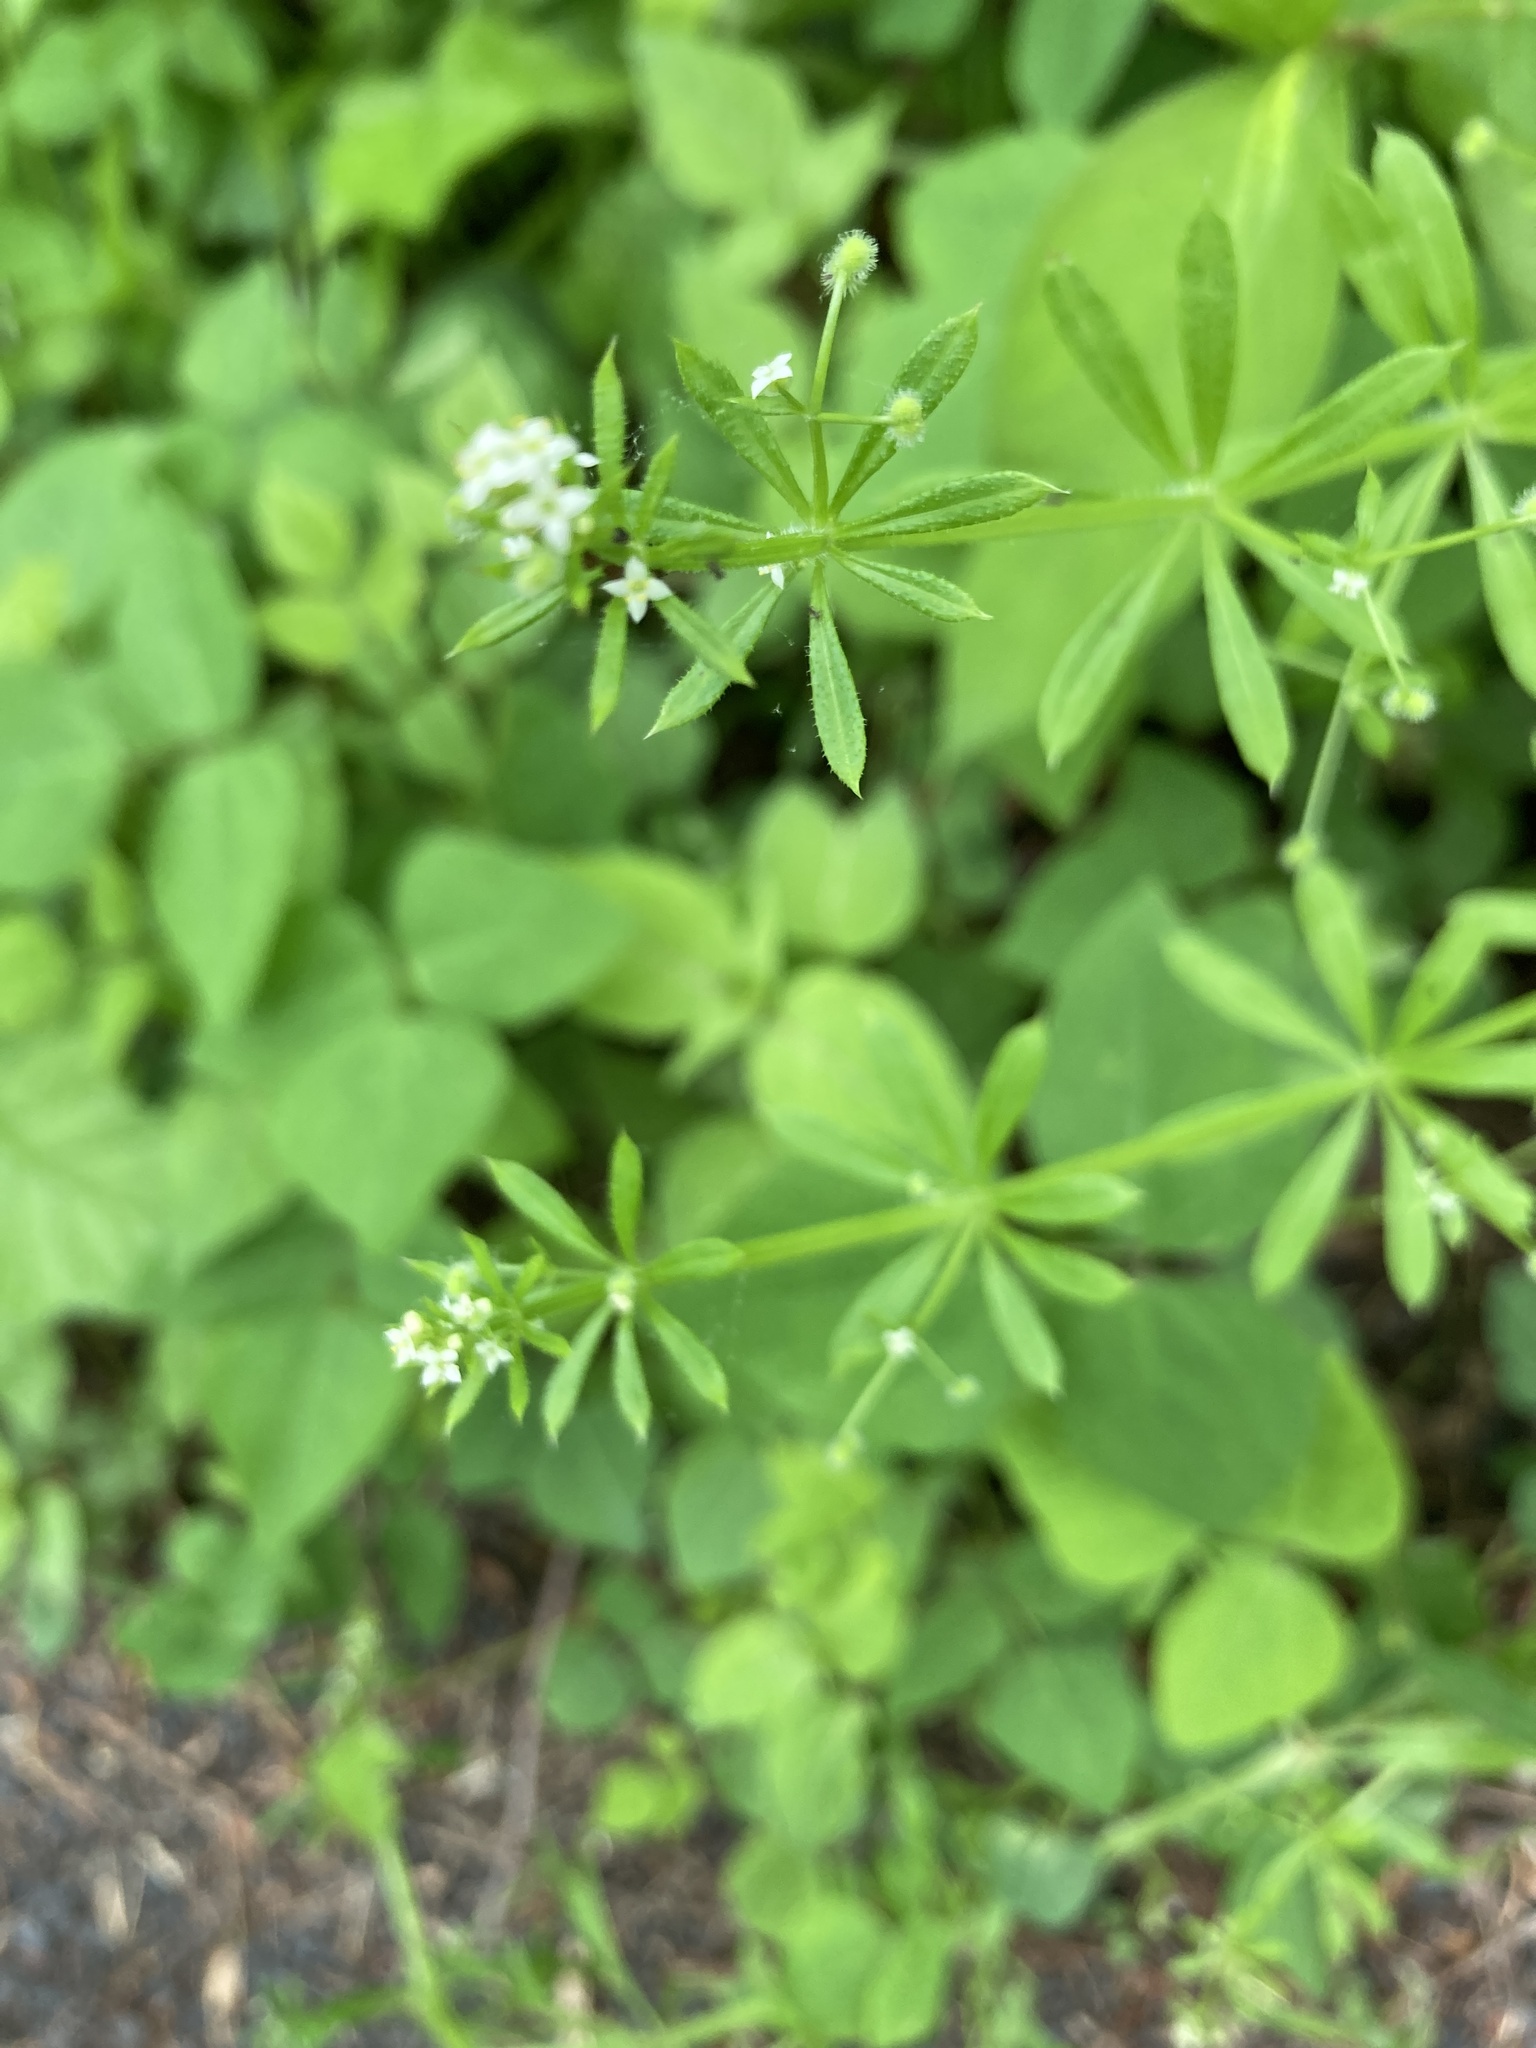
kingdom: Plantae
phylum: Tracheophyta
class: Magnoliopsida
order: Gentianales
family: Rubiaceae
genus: Galium
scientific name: Galium aparine
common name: Cleavers
